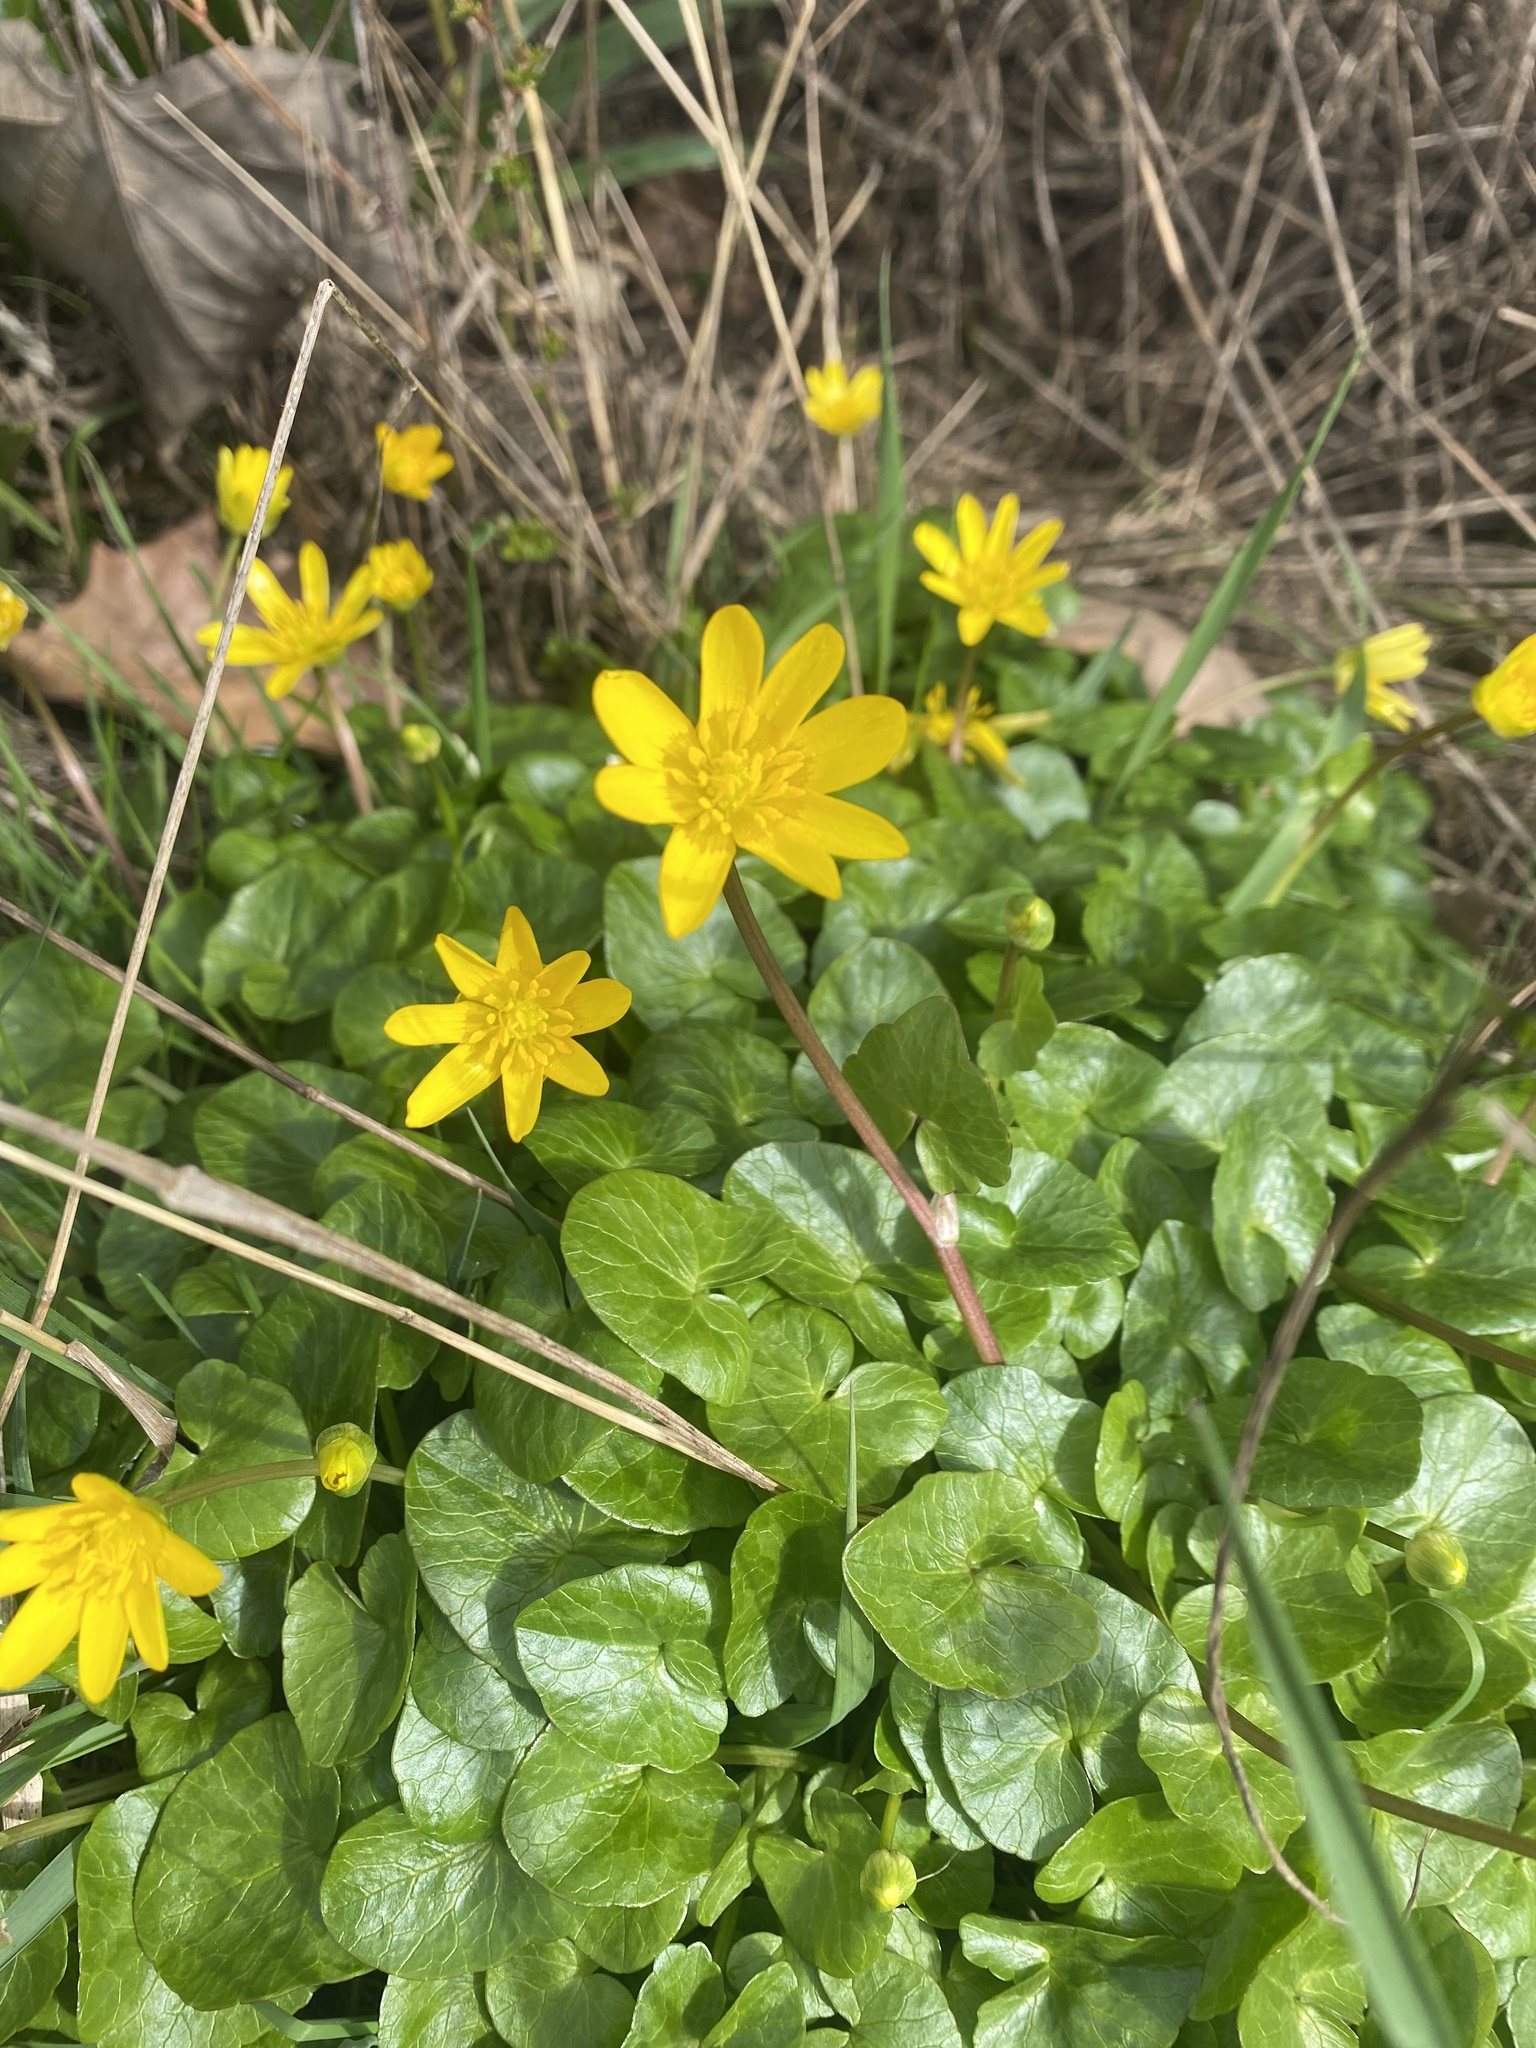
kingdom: Plantae
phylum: Tracheophyta
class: Magnoliopsida
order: Ranunculales
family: Ranunculaceae
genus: Ficaria
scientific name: Ficaria verna
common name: Lesser celandine
